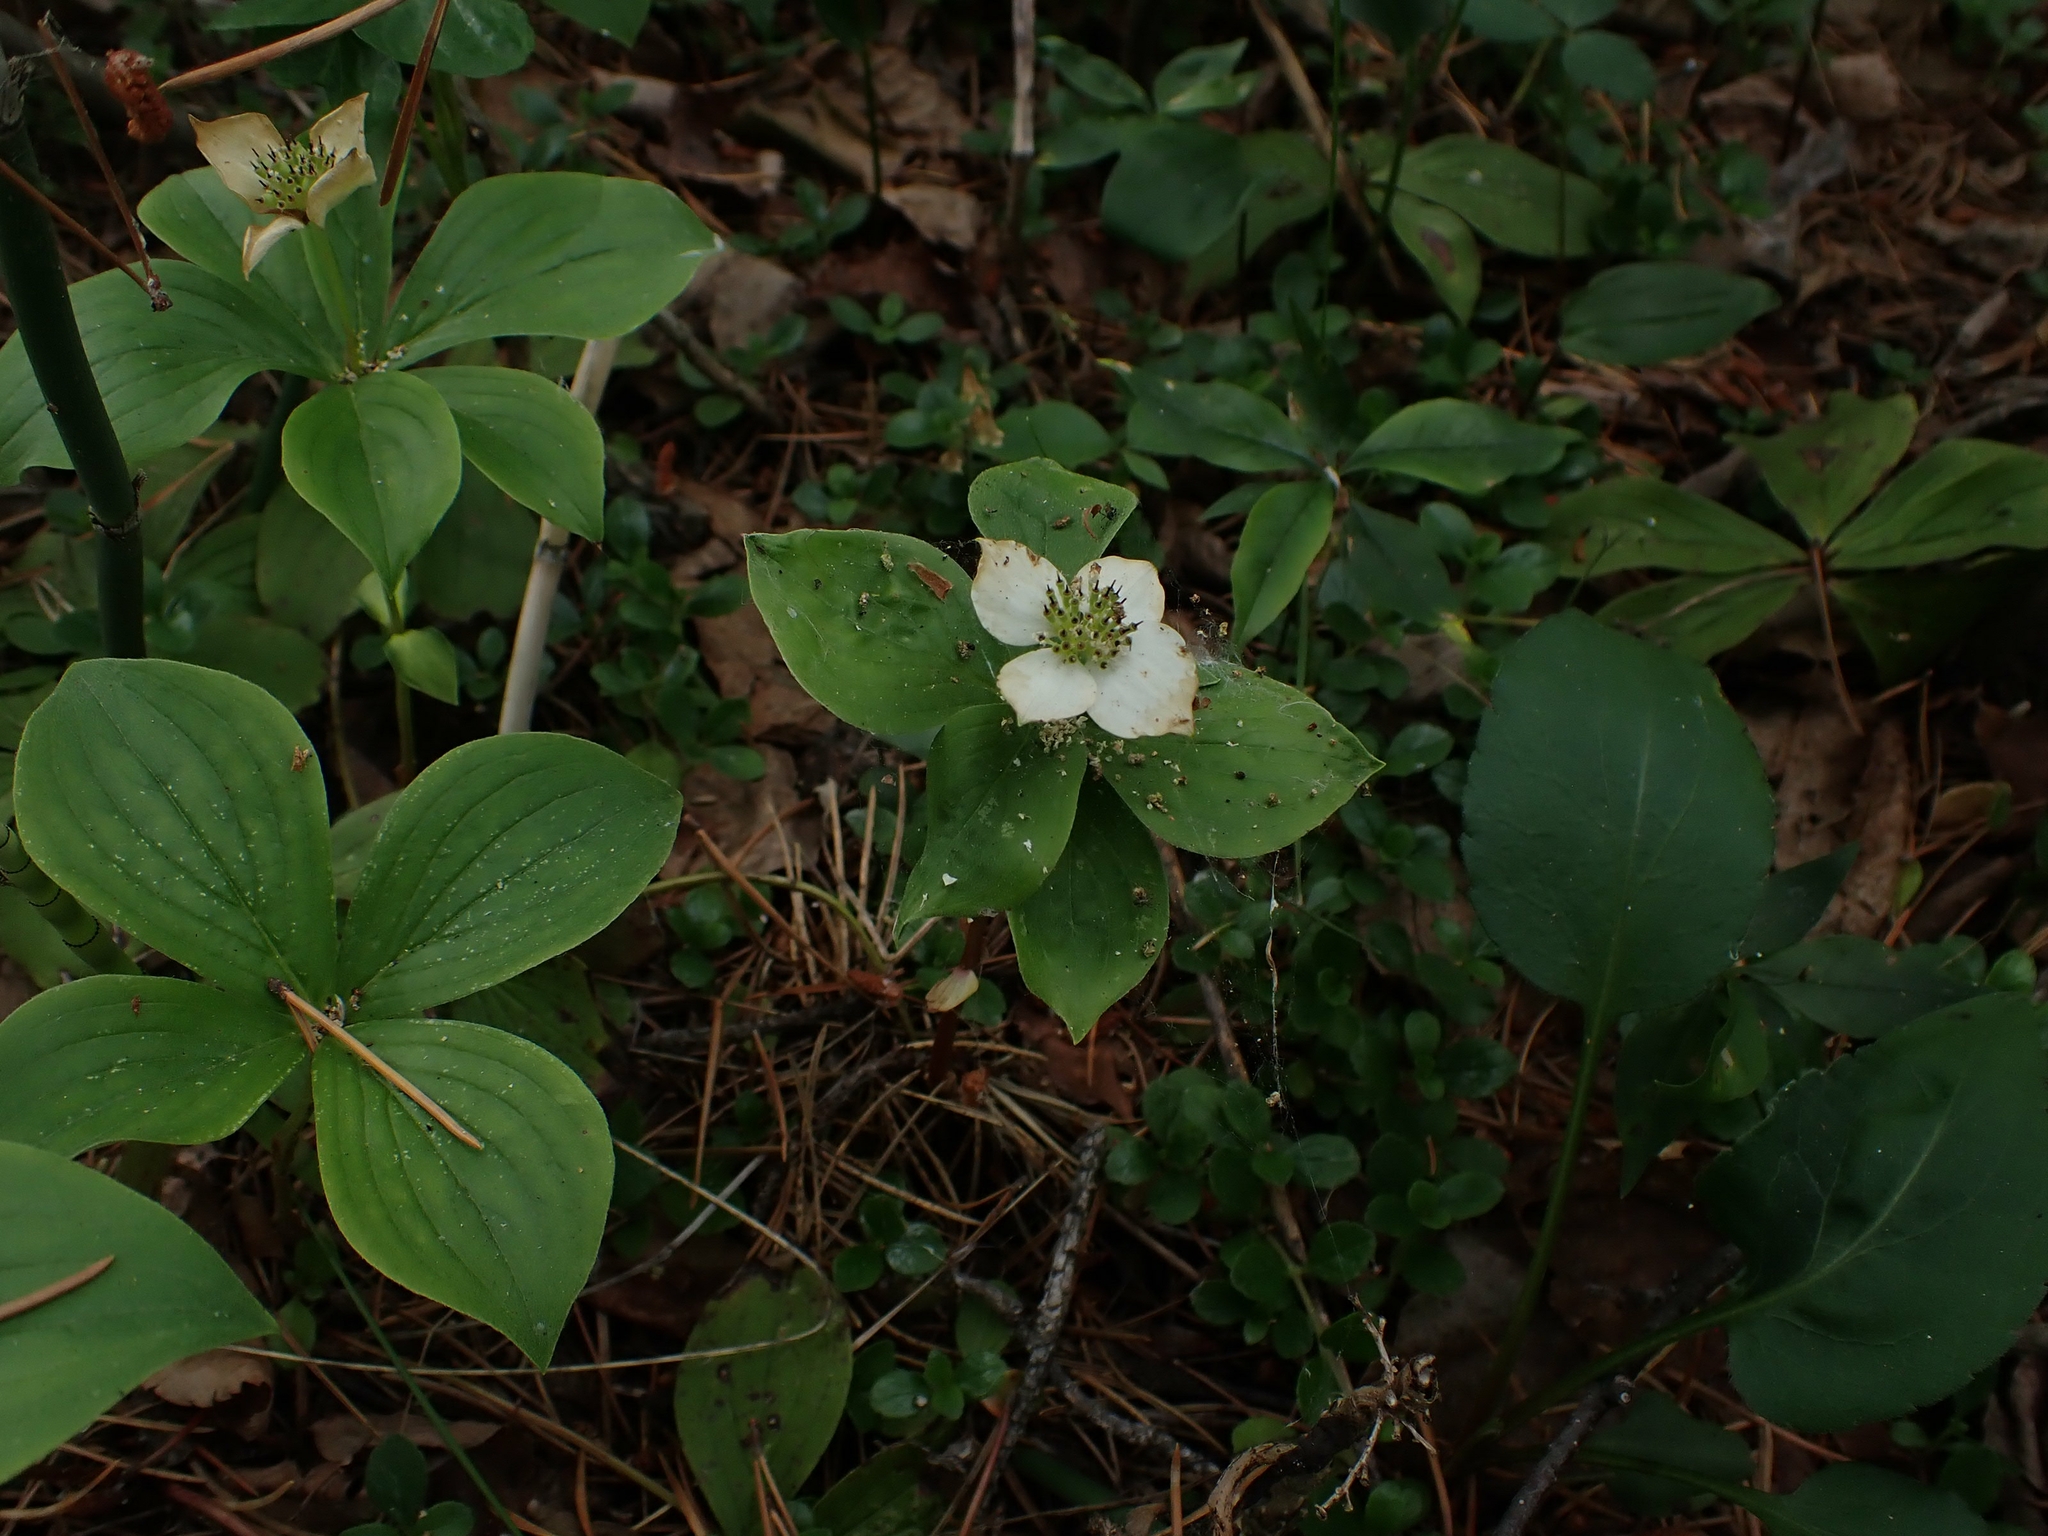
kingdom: Plantae
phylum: Tracheophyta
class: Magnoliopsida
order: Cornales
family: Cornaceae
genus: Cornus
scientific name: Cornus canadensis
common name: Creeping dogwood
